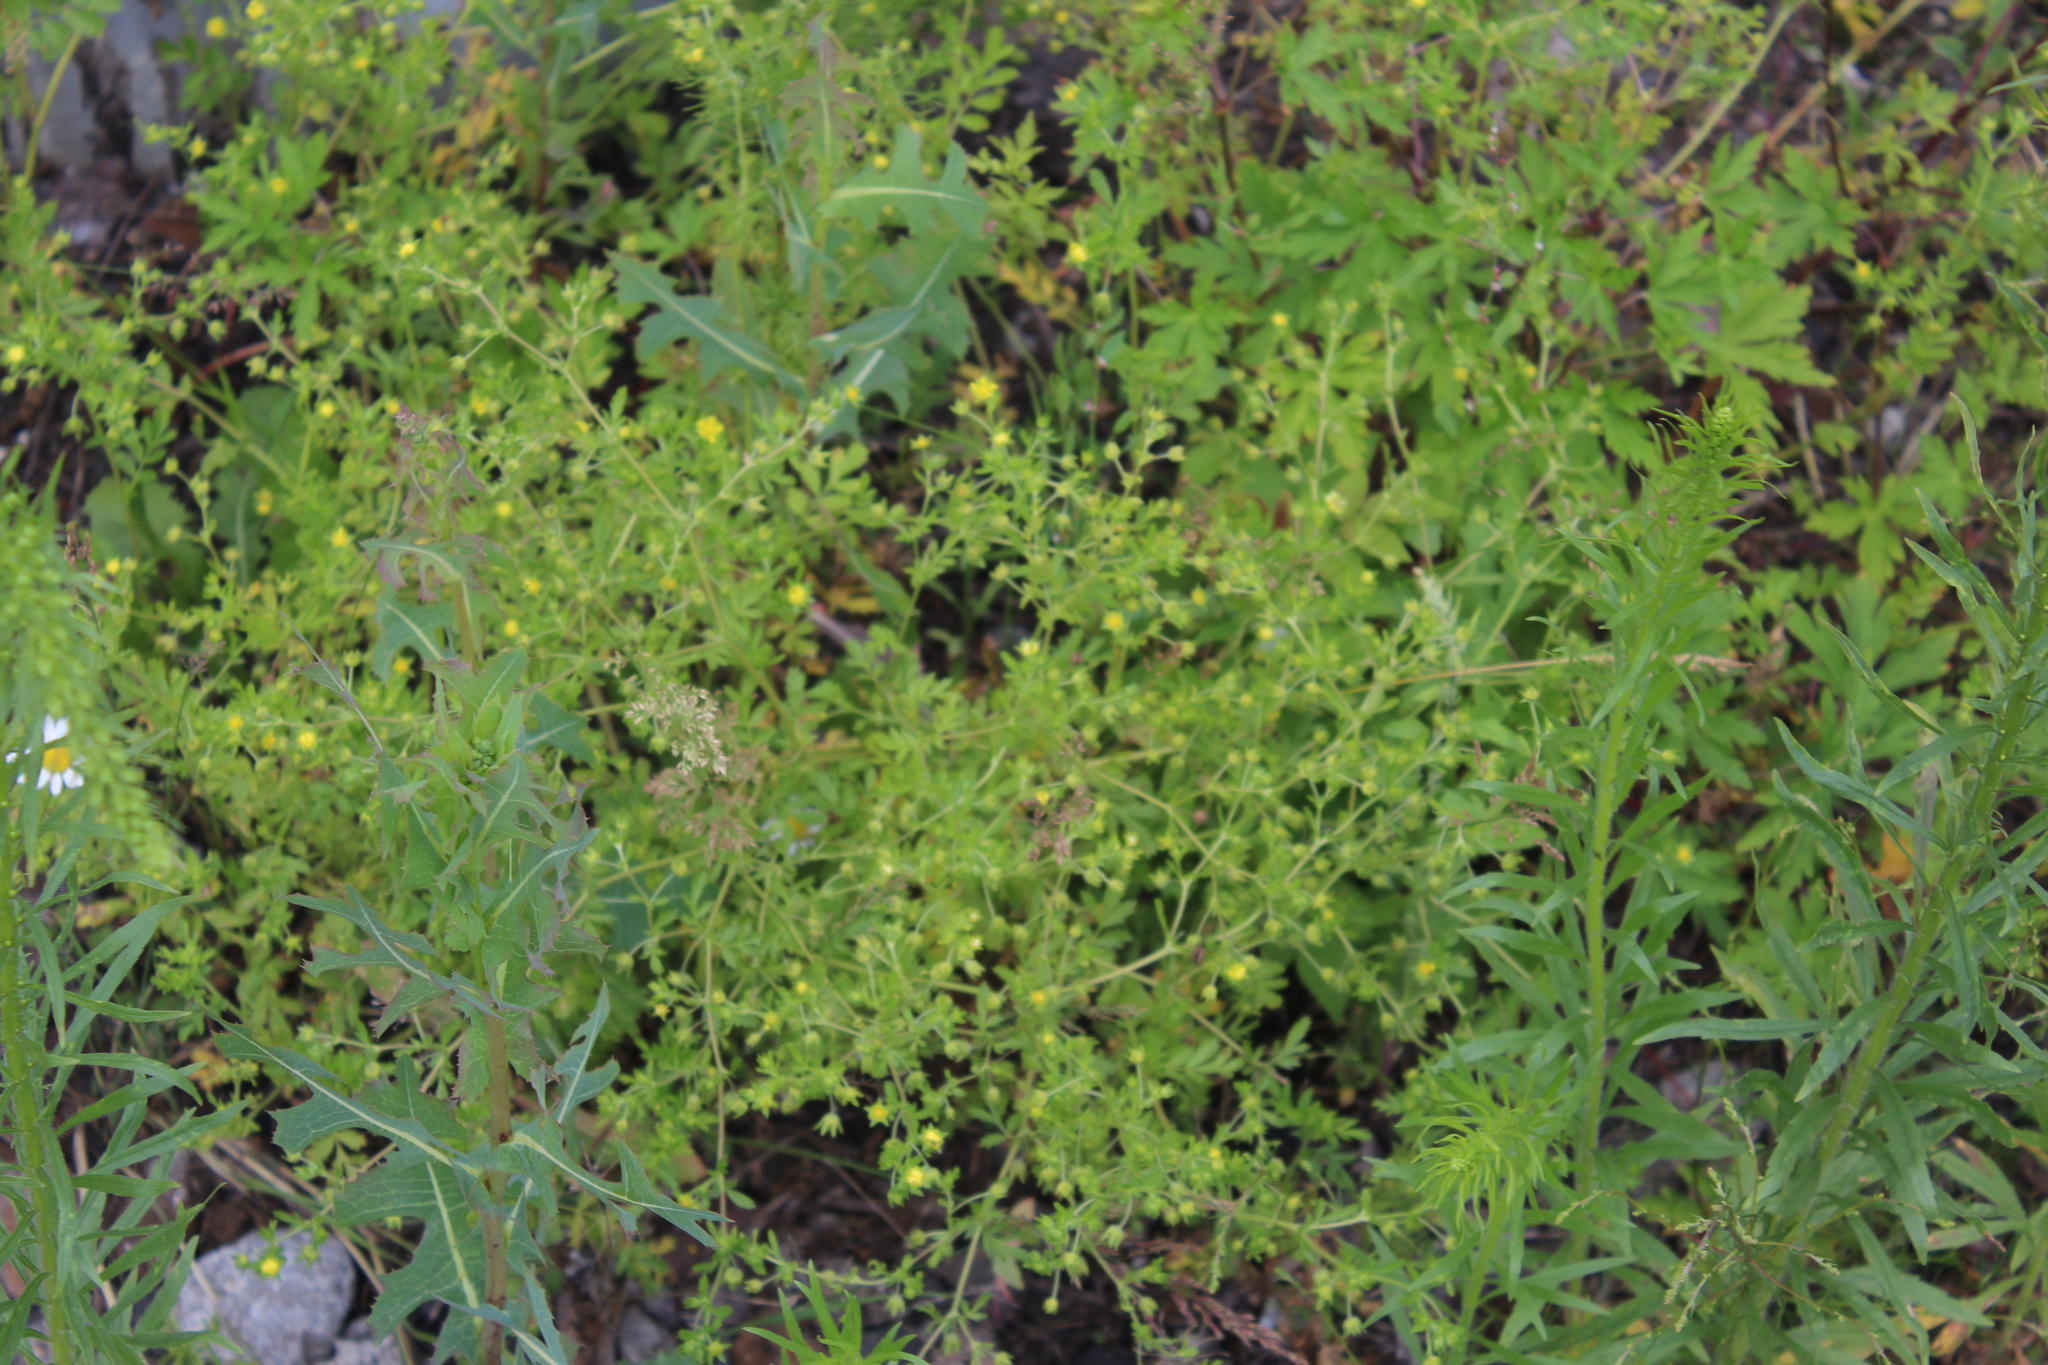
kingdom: Plantae
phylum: Tracheophyta
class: Magnoliopsida
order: Rosales
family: Rosaceae
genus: Potentilla
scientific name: Potentilla supina
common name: Prostrate cinquefoil
